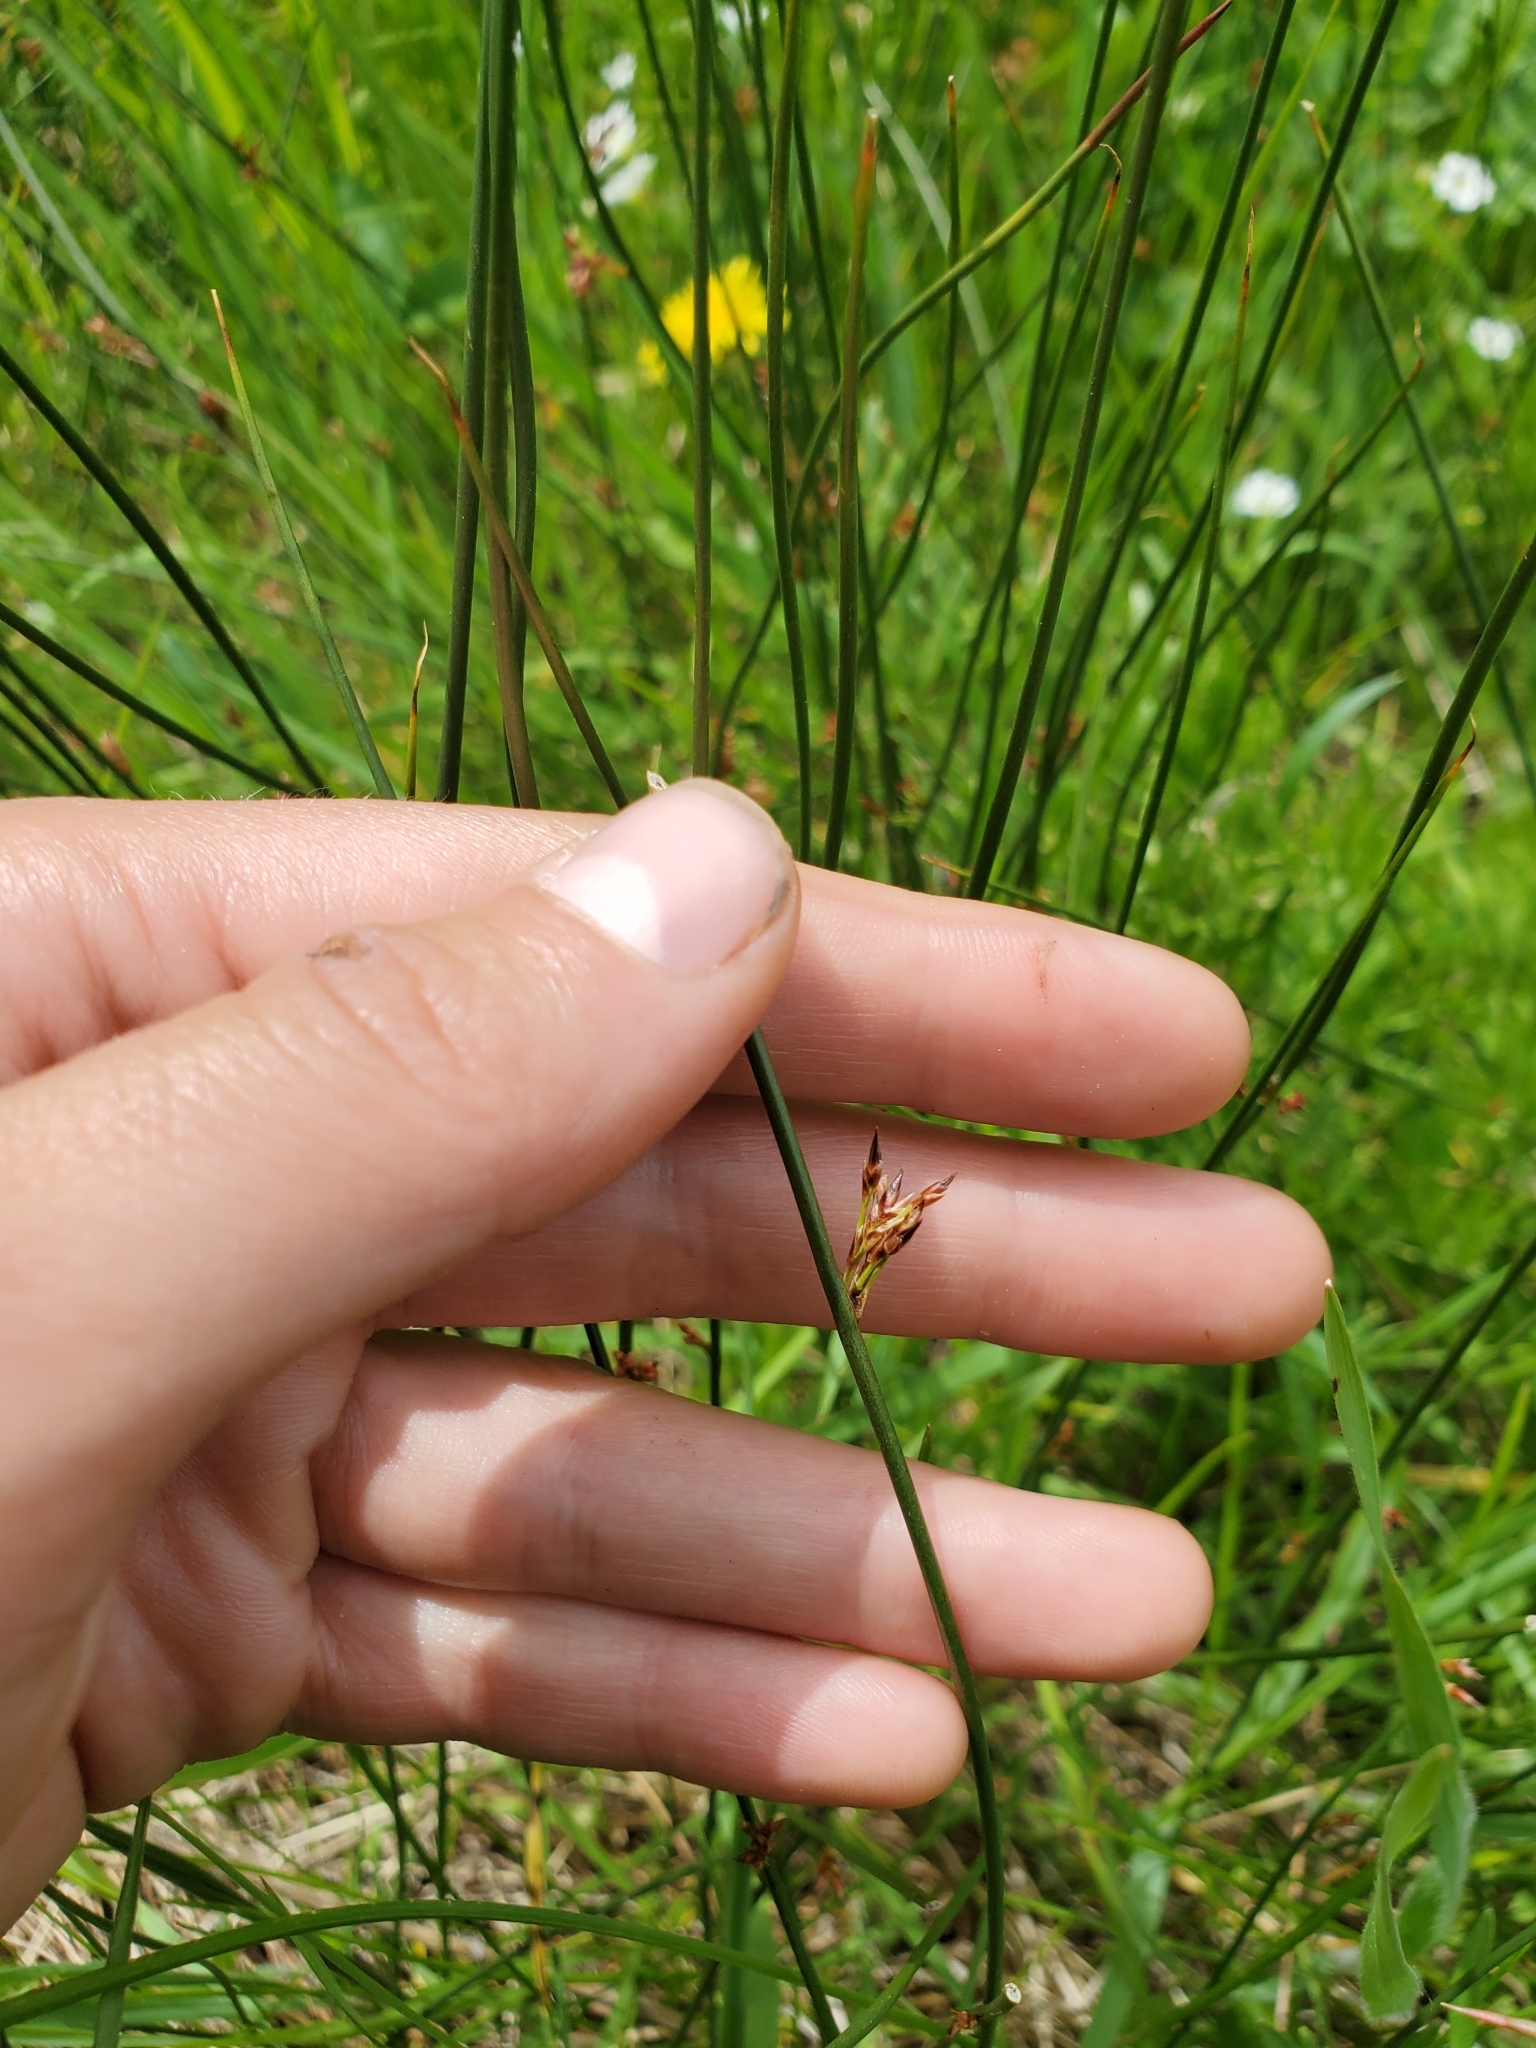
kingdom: Plantae
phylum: Tracheophyta
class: Liliopsida
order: Poales
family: Juncaceae
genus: Juncus
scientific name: Juncus balticus
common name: Baltic rush
